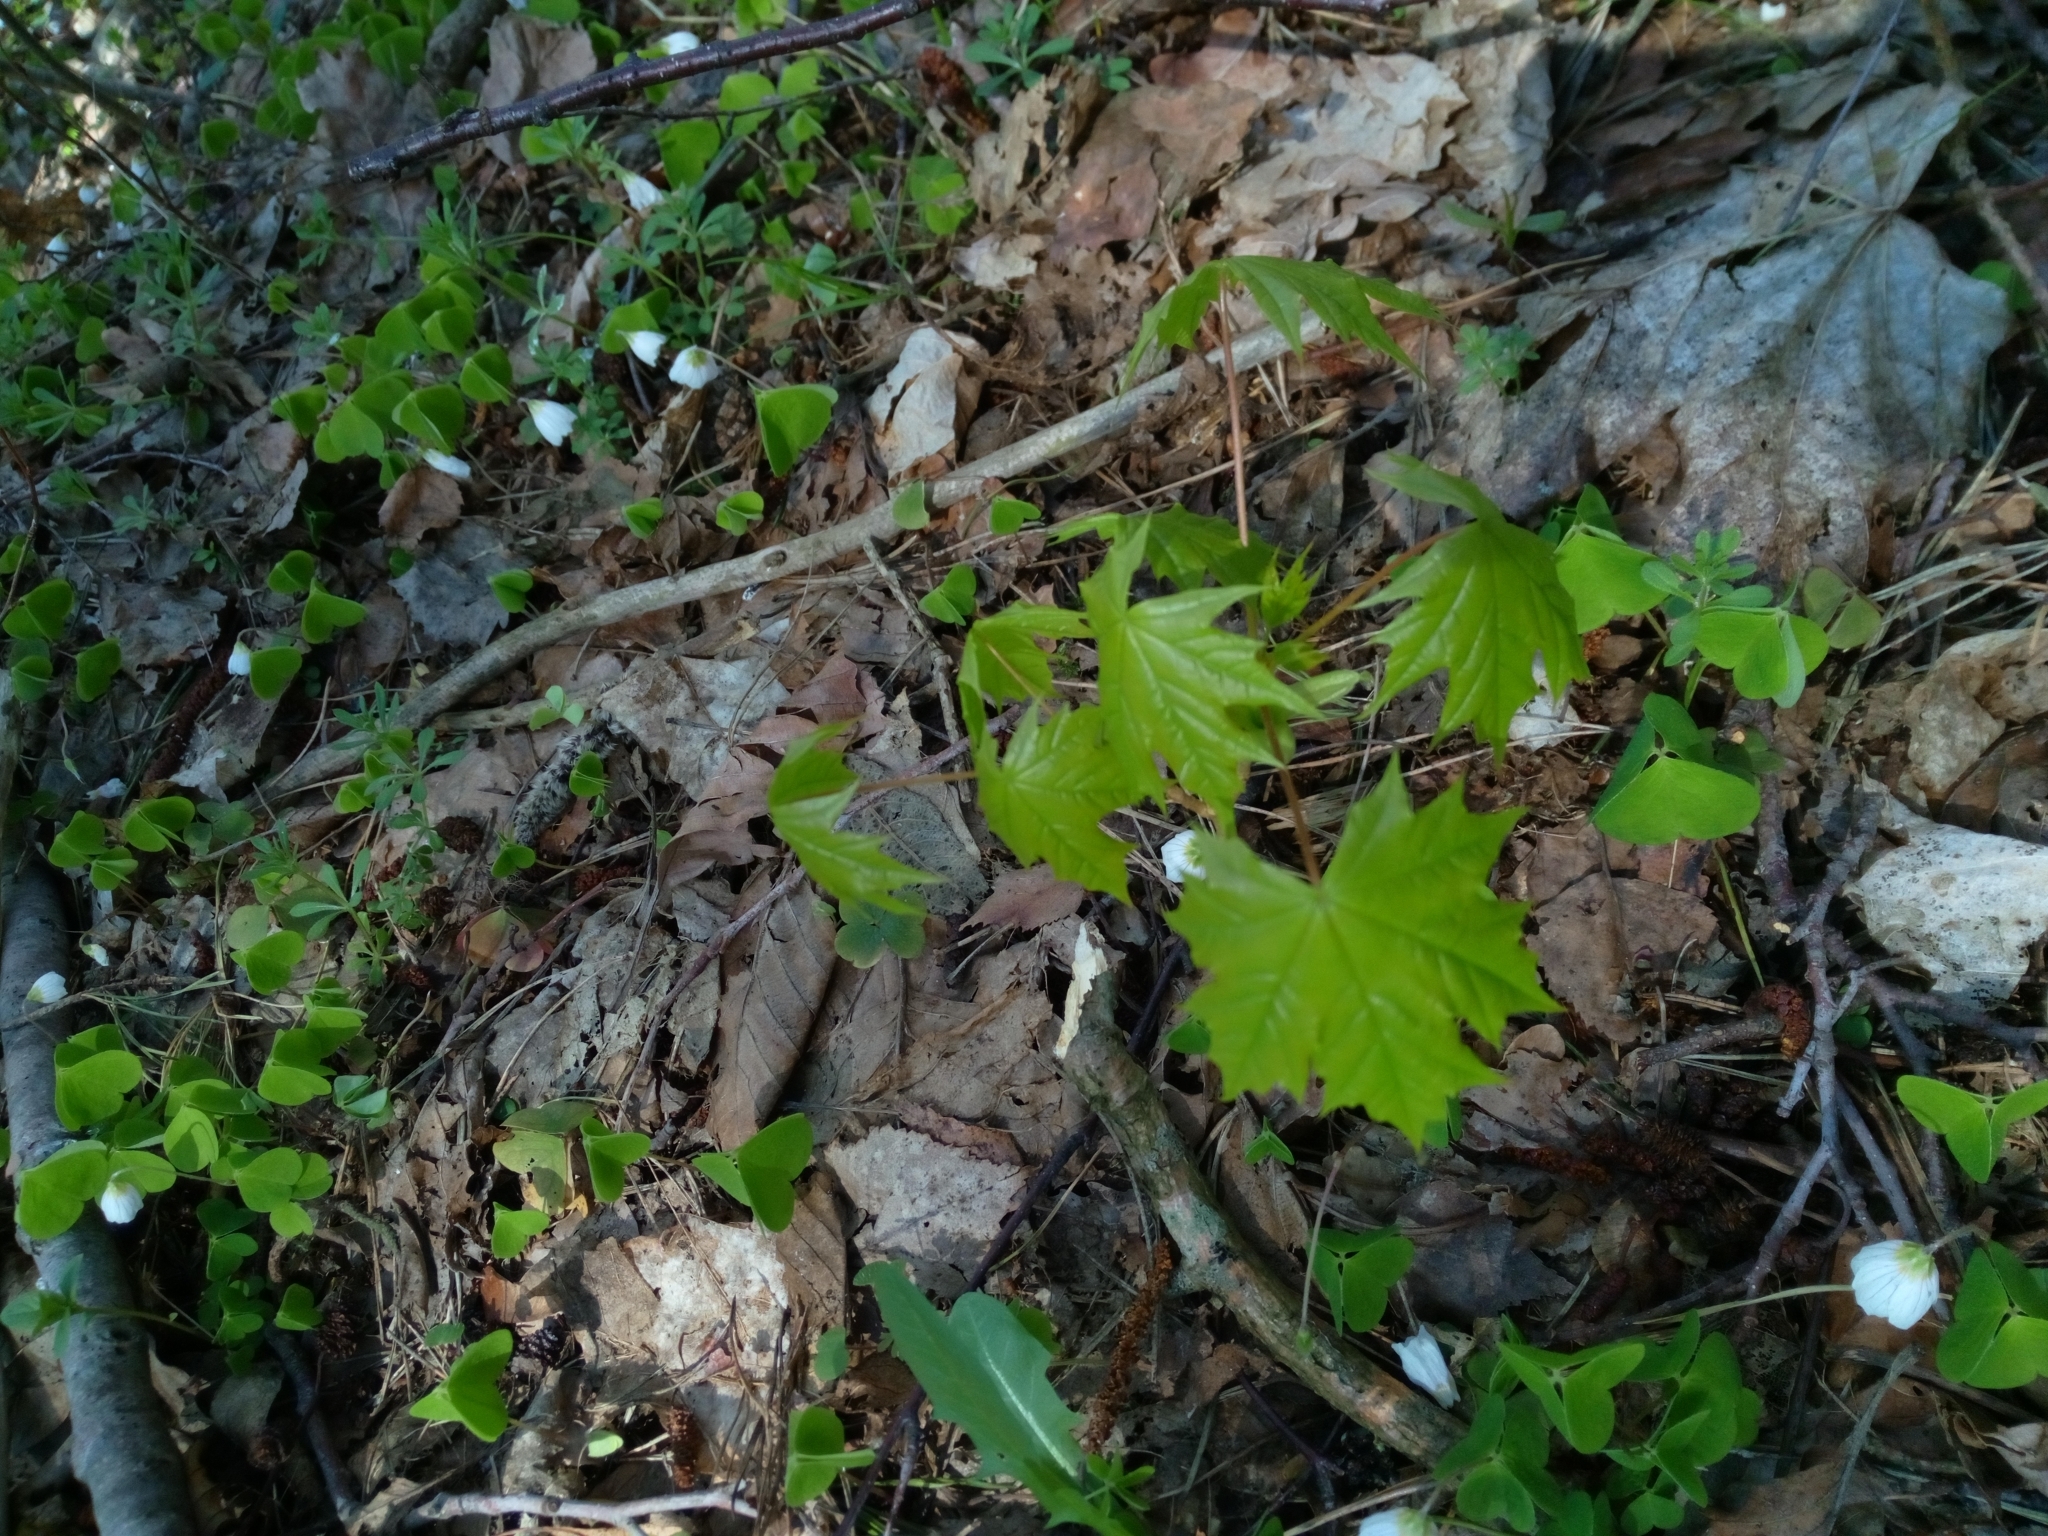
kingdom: Plantae
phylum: Tracheophyta
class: Magnoliopsida
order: Sapindales
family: Sapindaceae
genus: Acer
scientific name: Acer platanoides
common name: Norway maple
